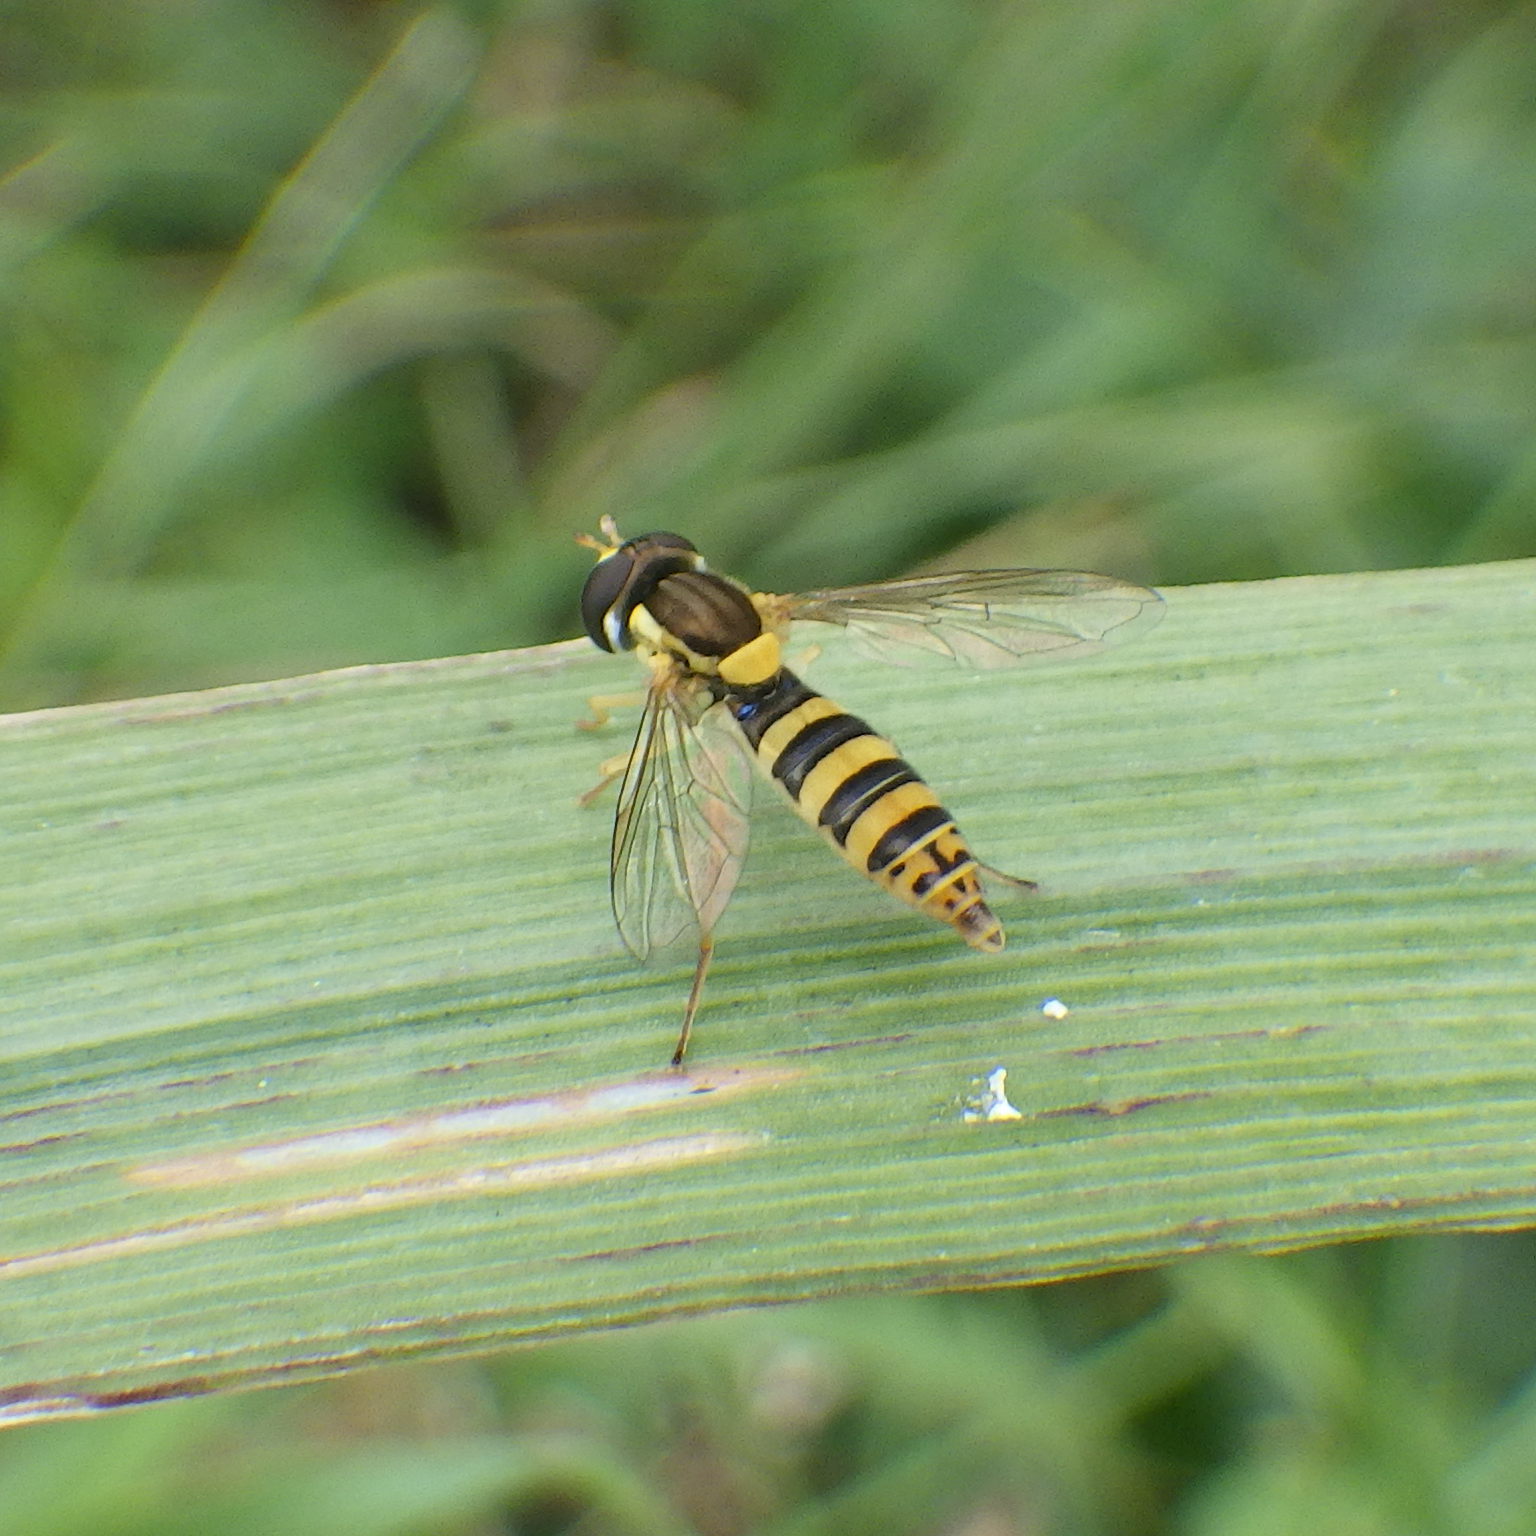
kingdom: Animalia
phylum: Arthropoda
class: Insecta
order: Diptera
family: Syrphidae
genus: Sphaerophoria
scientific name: Sphaerophoria
